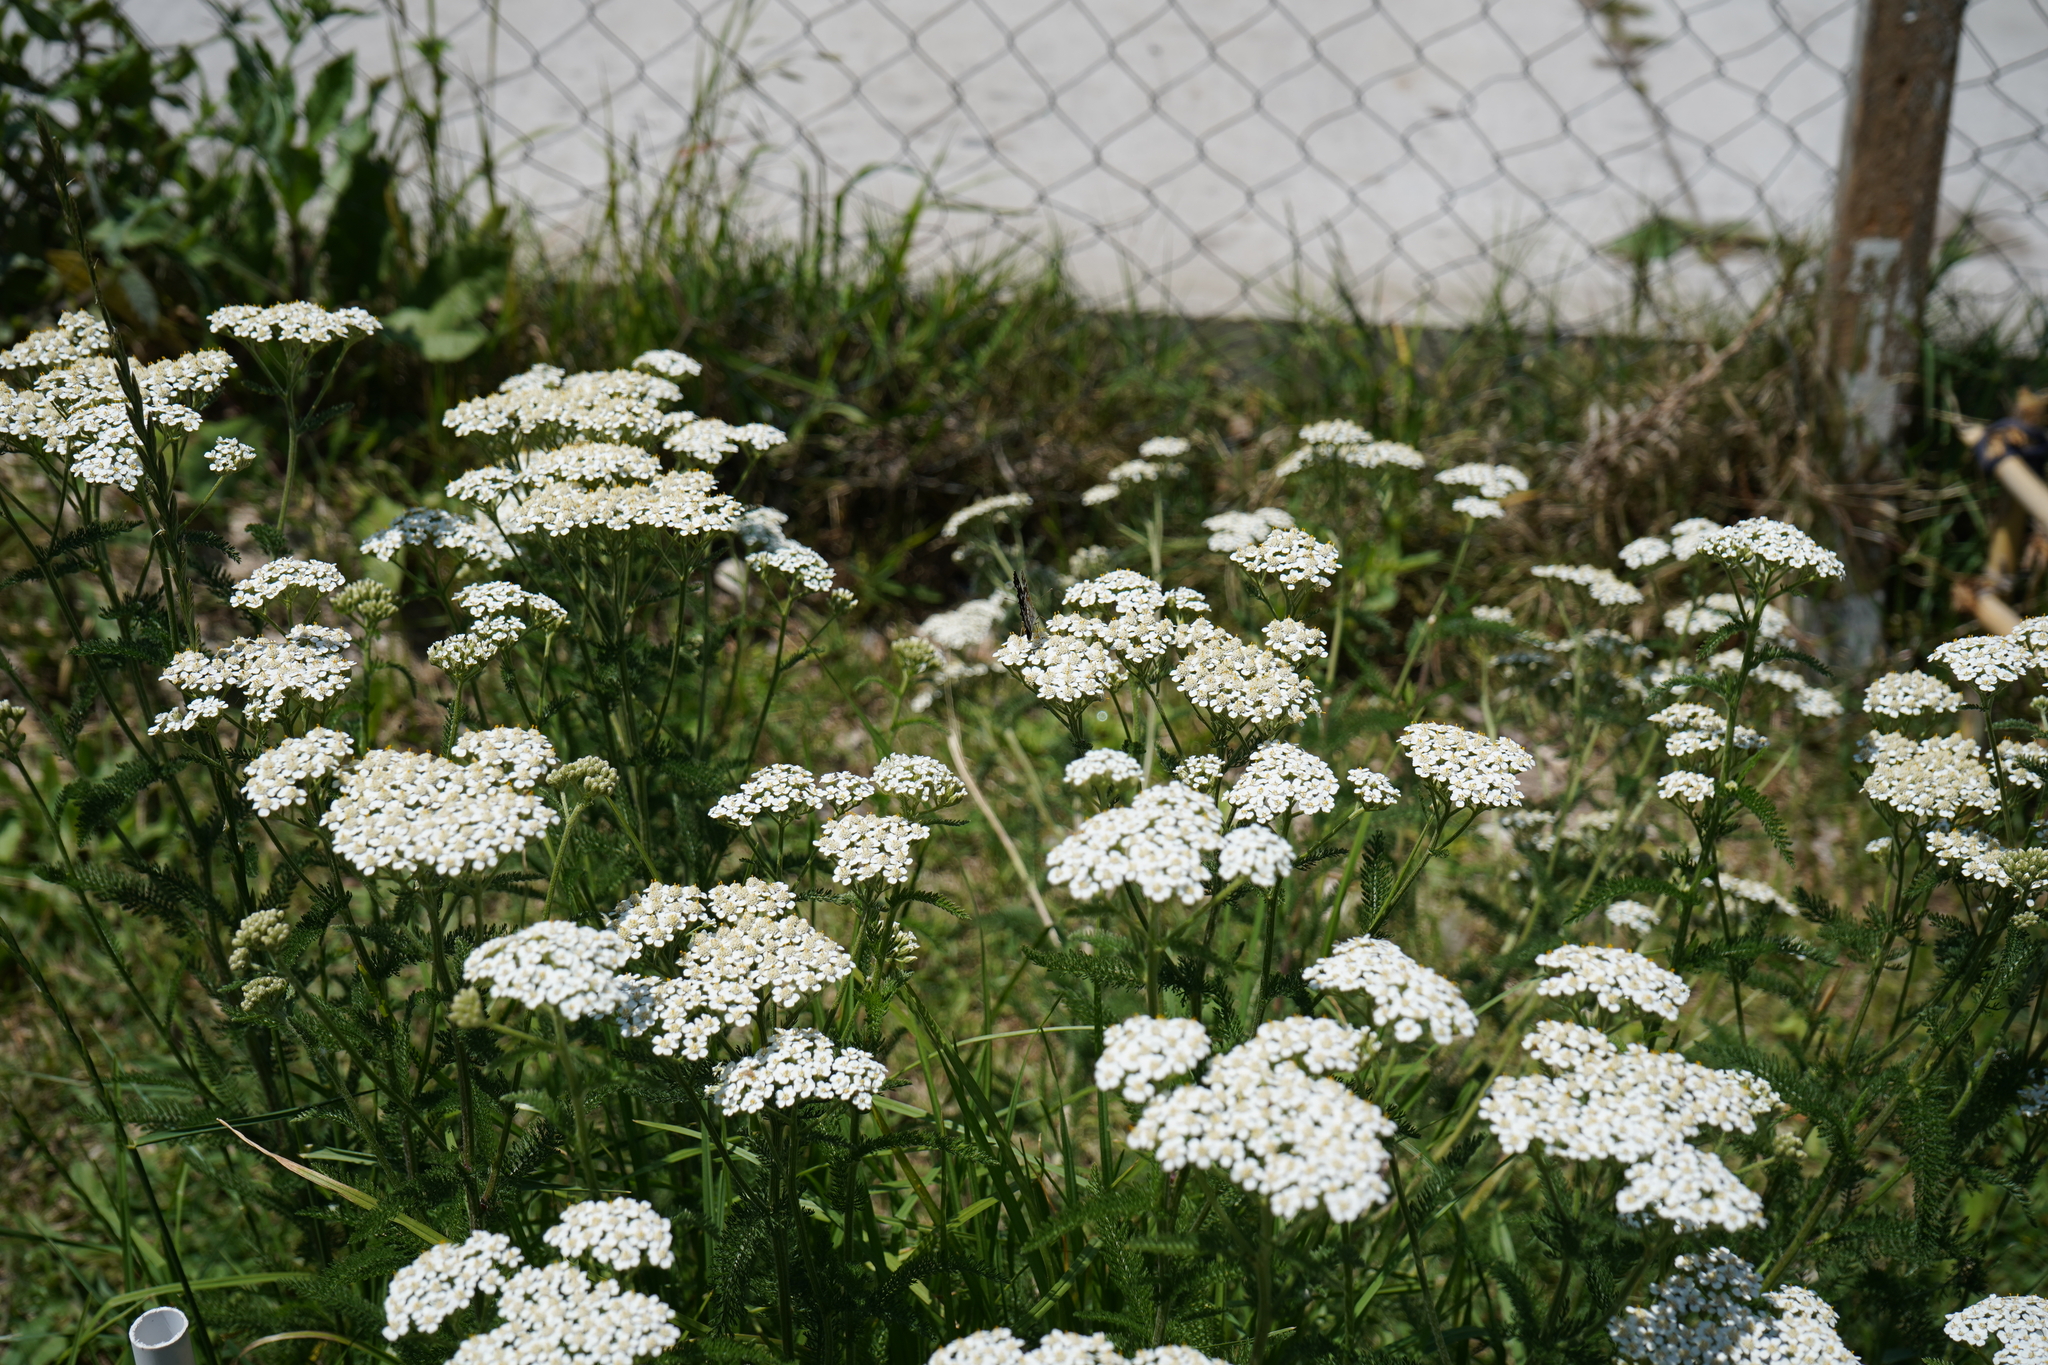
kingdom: Plantae
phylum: Tracheophyta
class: Magnoliopsida
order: Asterales
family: Asteraceae
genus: Achillea
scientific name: Achillea millefolium
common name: Yarrow
